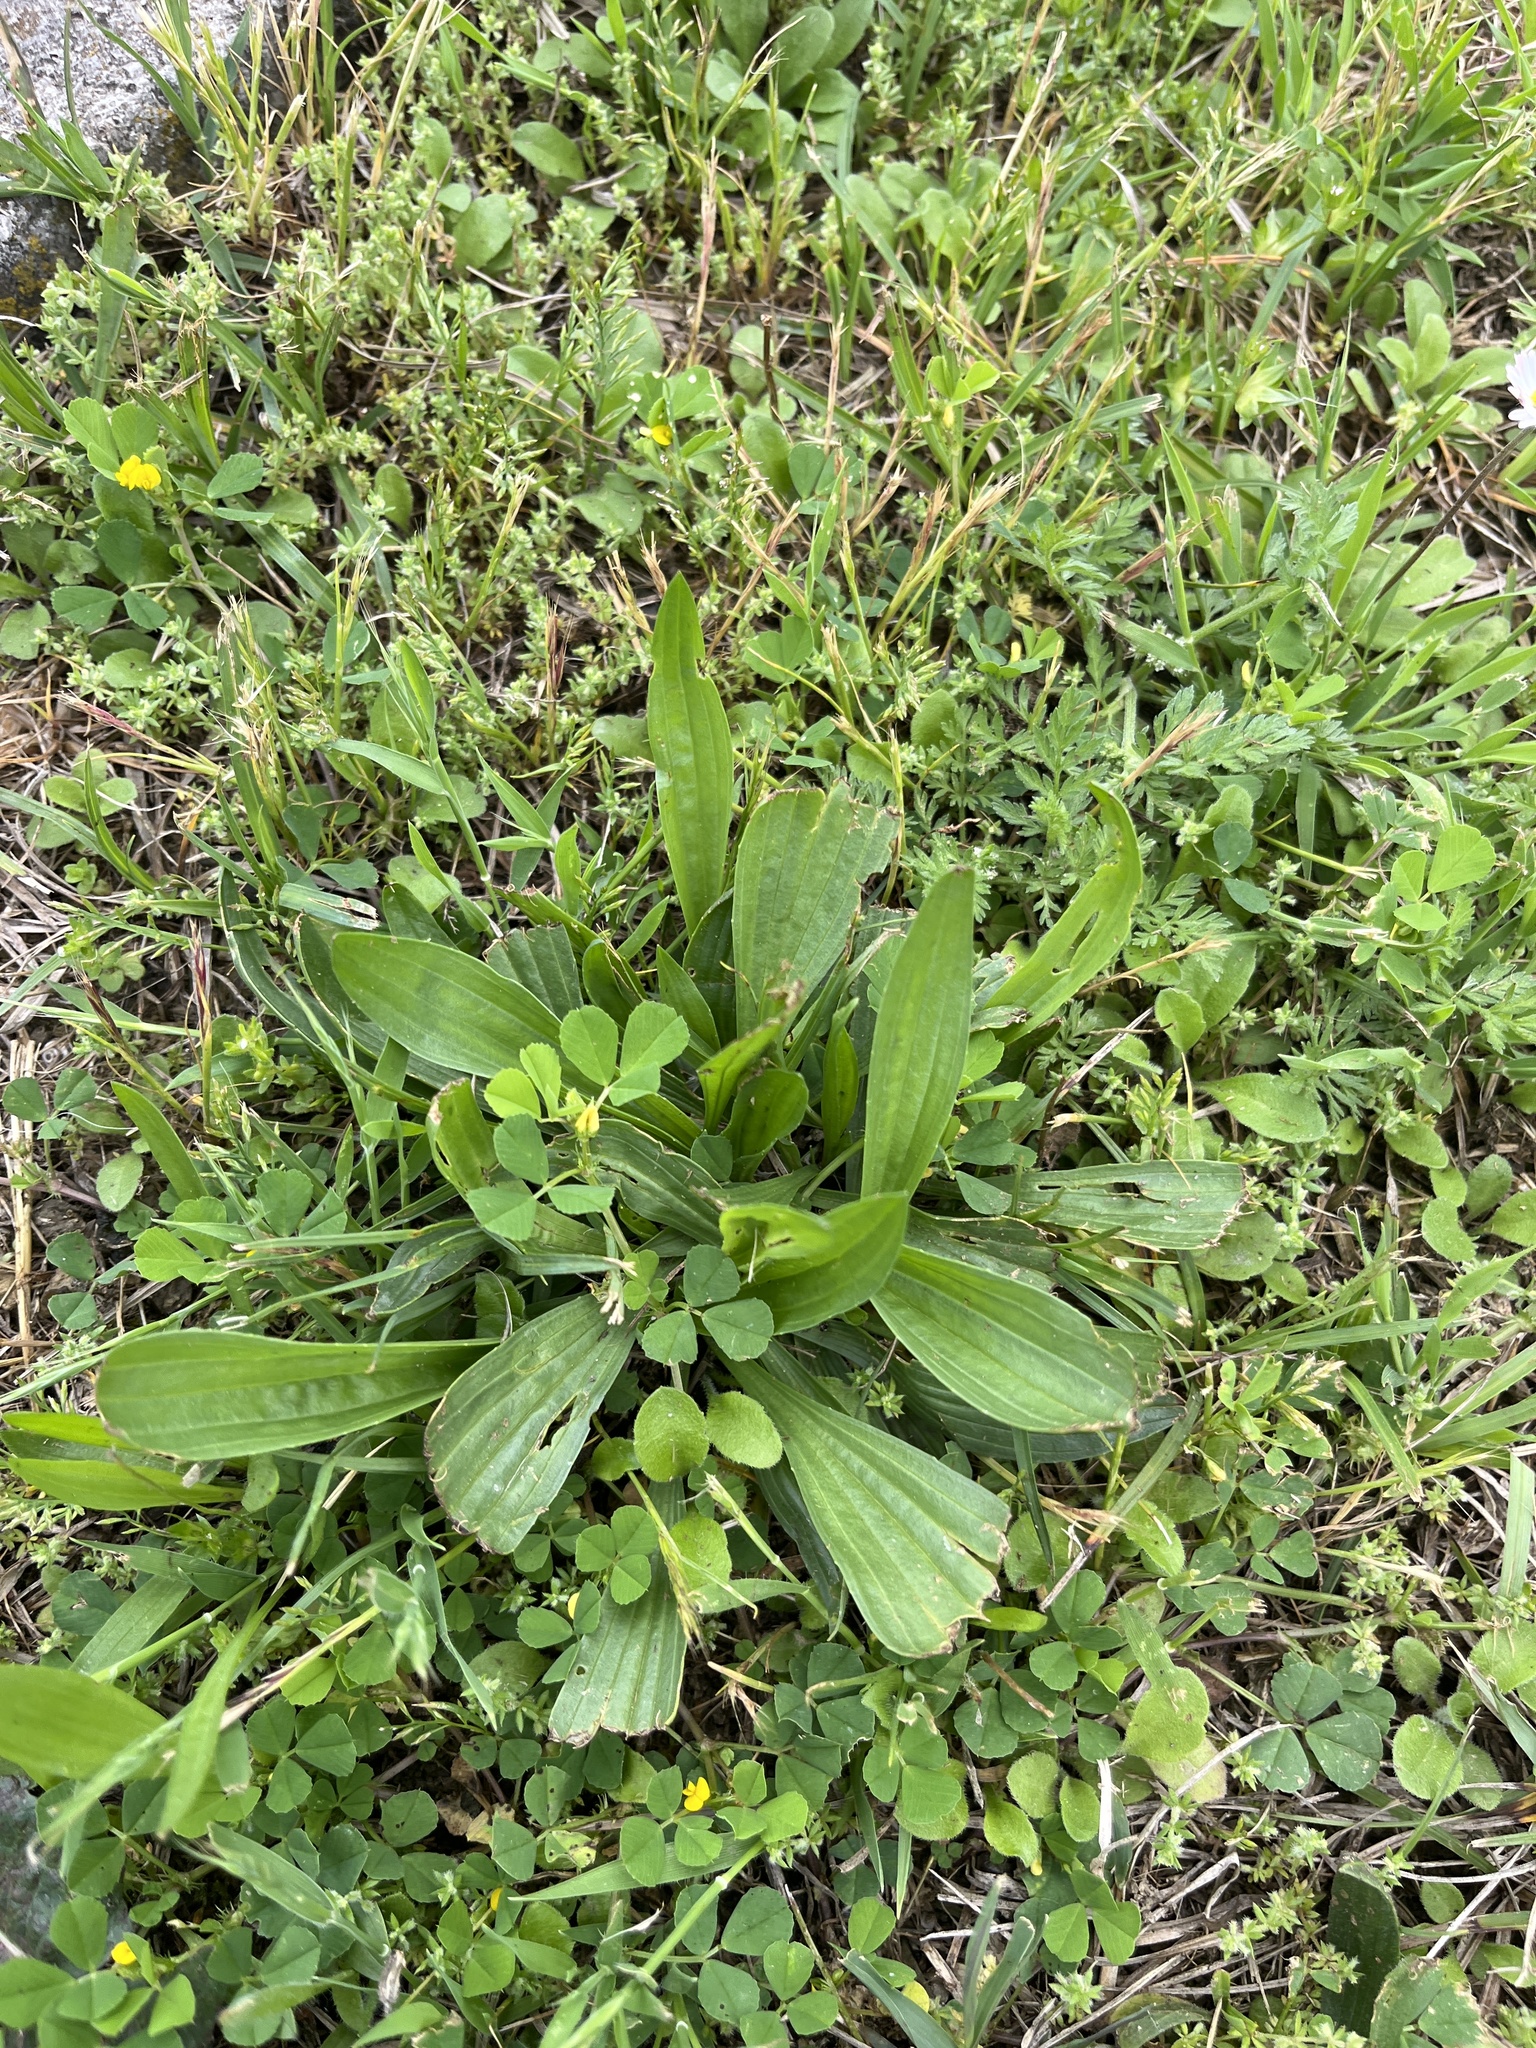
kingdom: Plantae
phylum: Tracheophyta
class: Magnoliopsida
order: Lamiales
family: Plantaginaceae
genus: Plantago
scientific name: Plantago lanceolata
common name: Ribwort plantain
